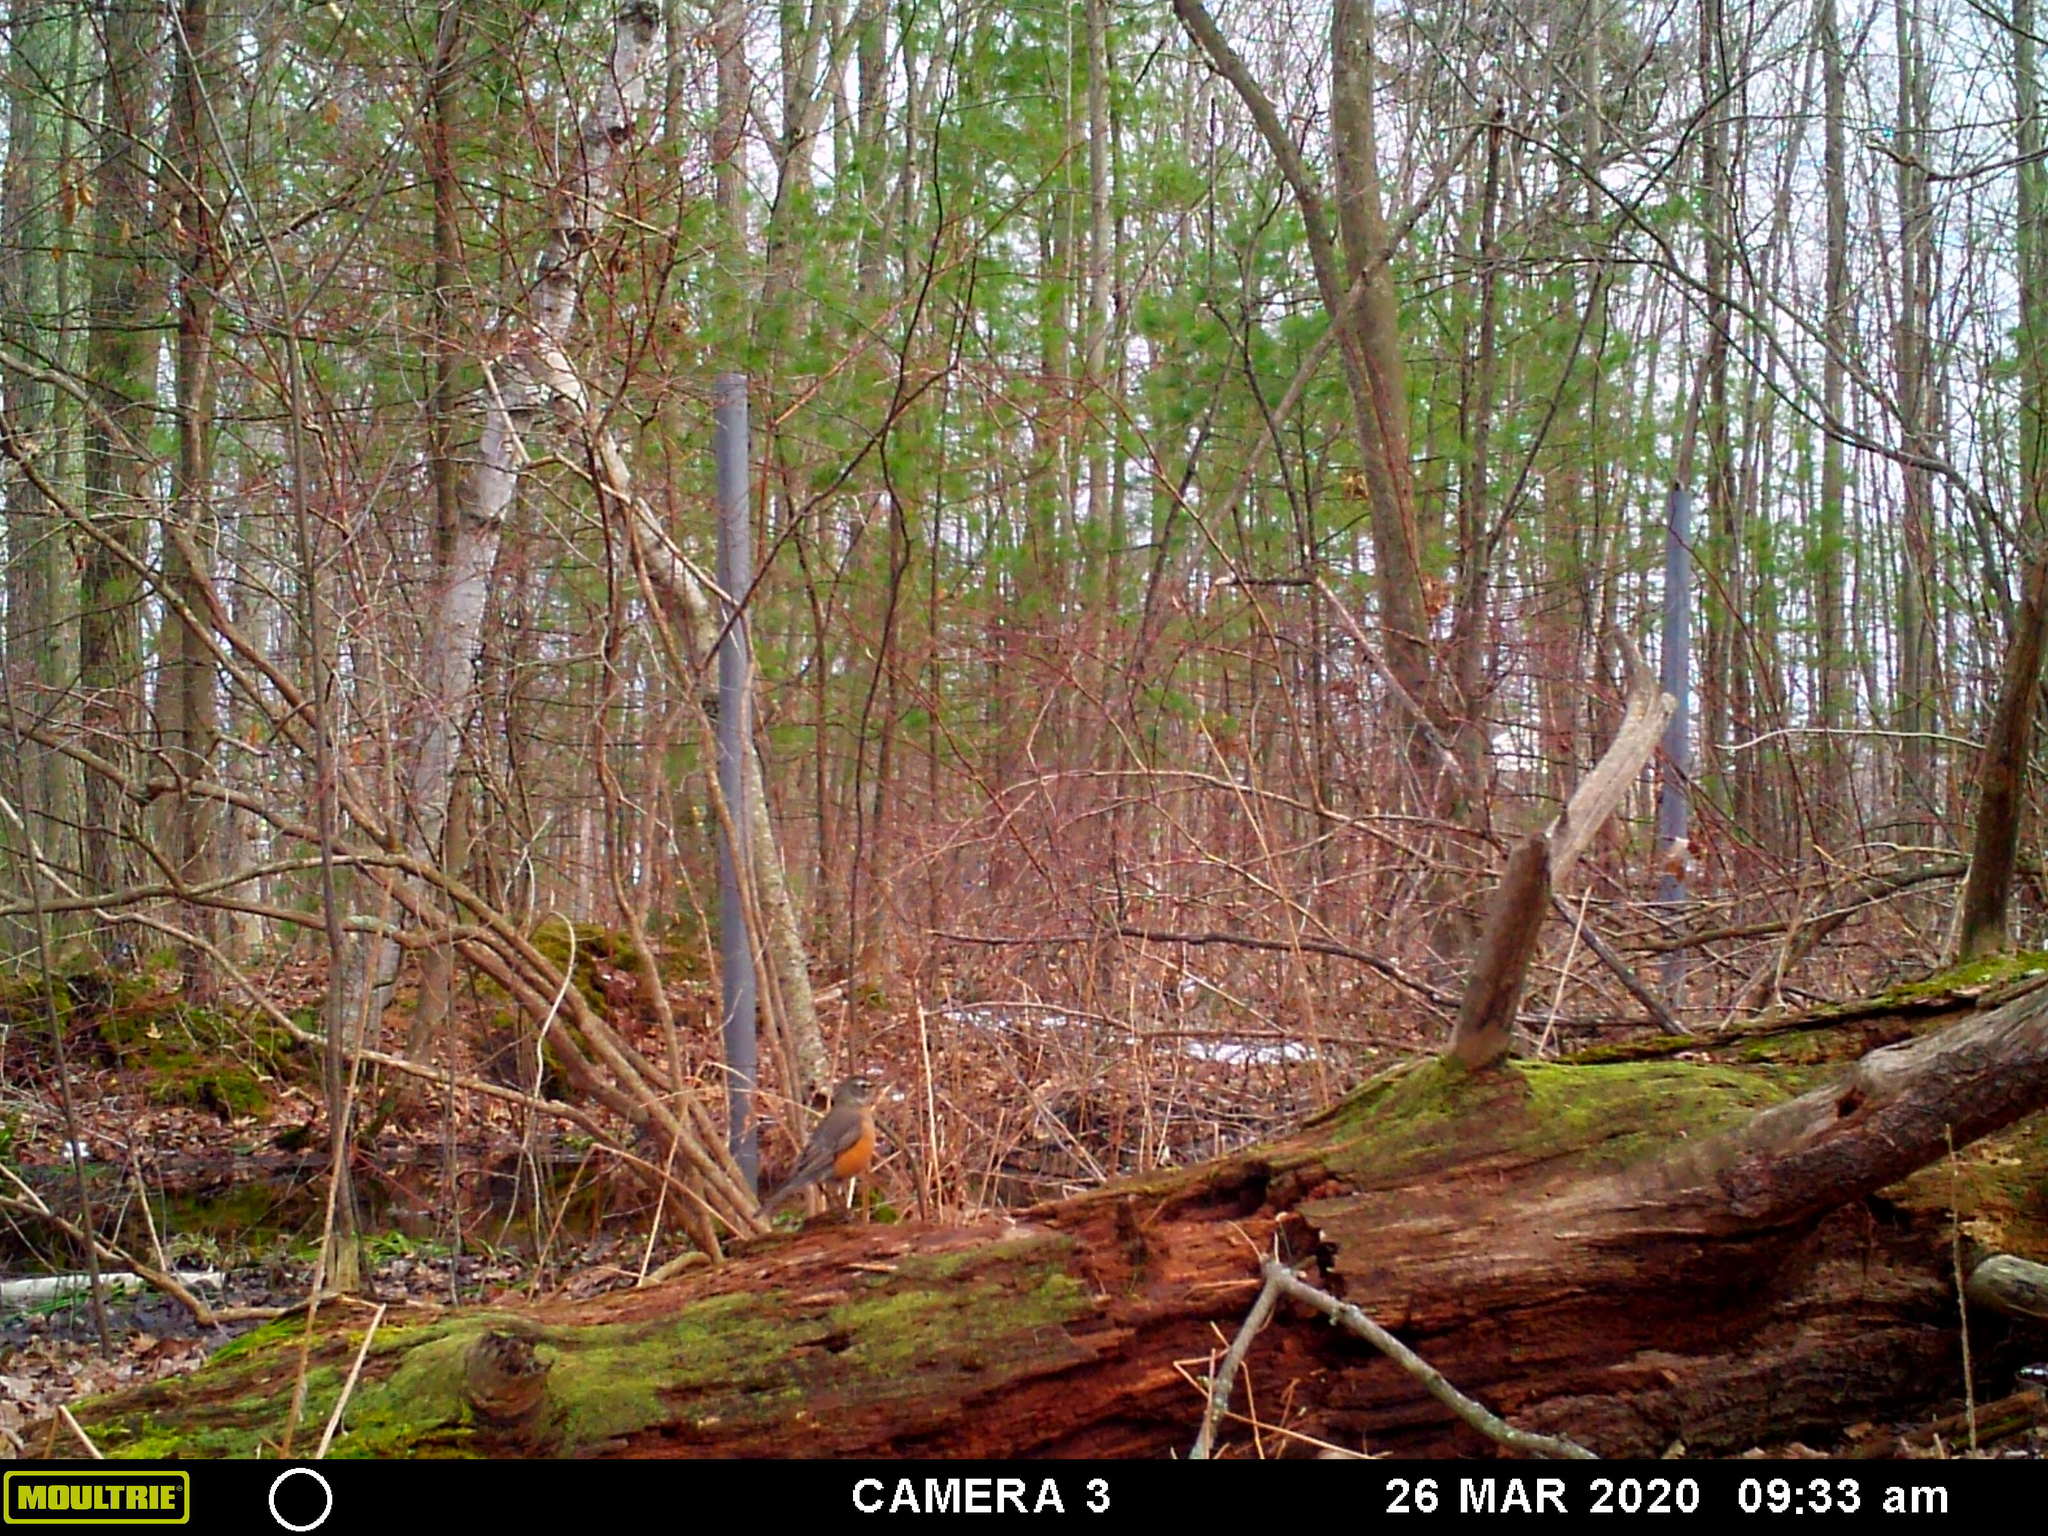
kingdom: Animalia
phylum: Chordata
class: Aves
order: Passeriformes
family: Turdidae
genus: Turdus
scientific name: Turdus migratorius
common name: American robin
